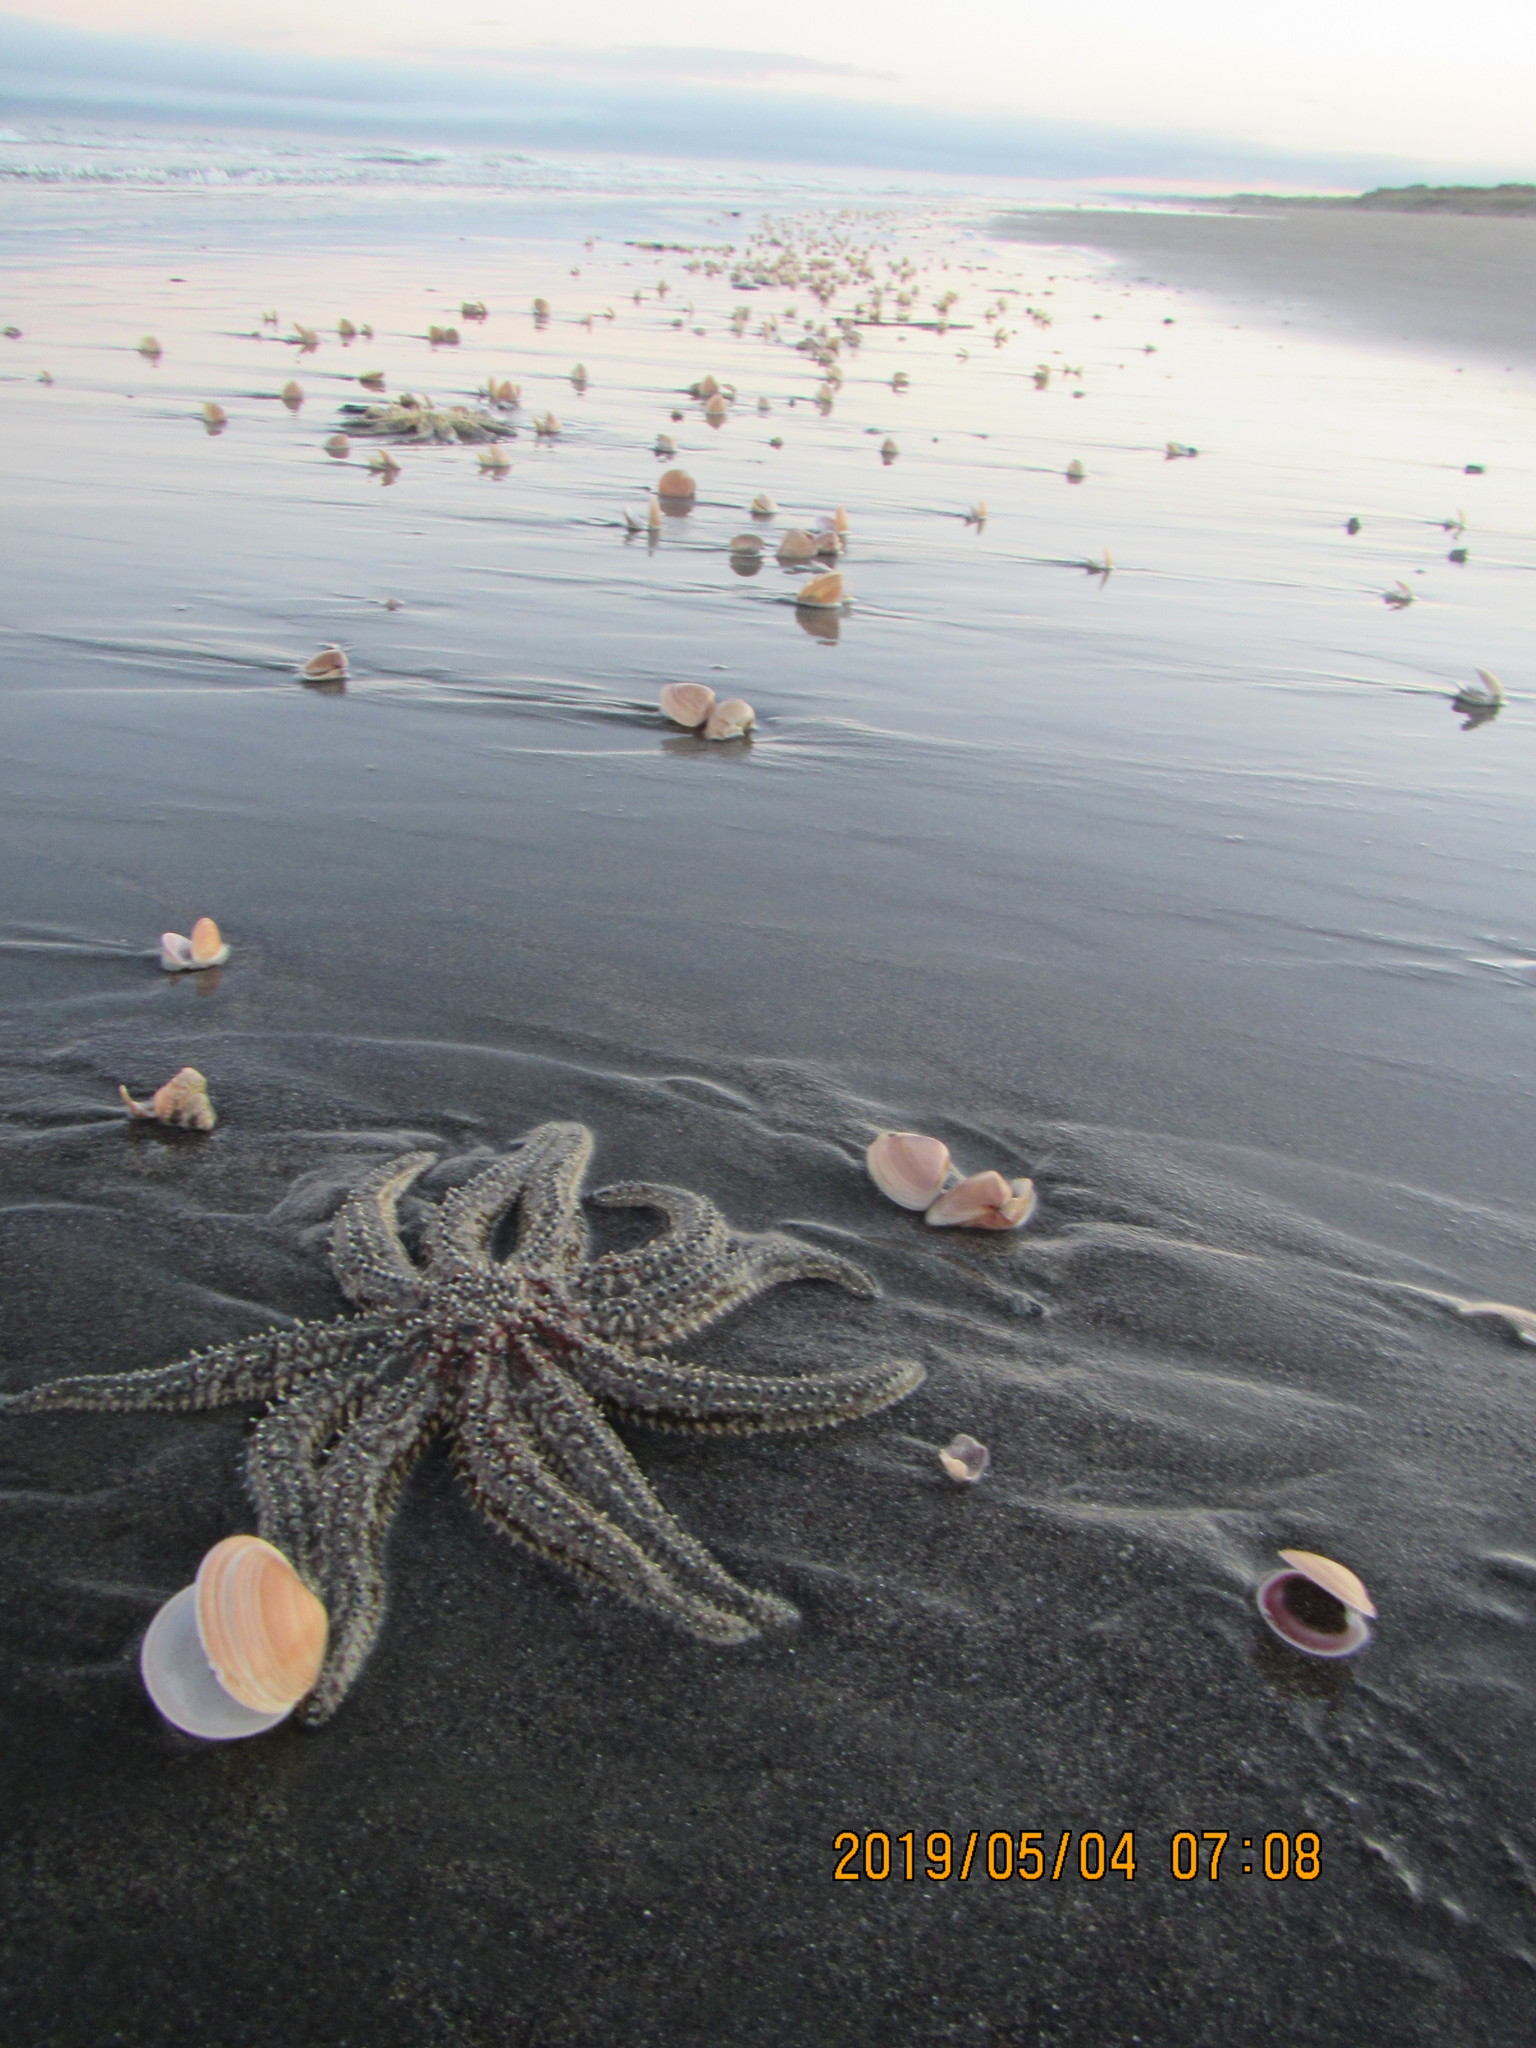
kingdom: Animalia
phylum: Echinodermata
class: Asteroidea
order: Forcipulatida
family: Asteriidae
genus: Coscinasterias
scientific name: Coscinasterias muricata
